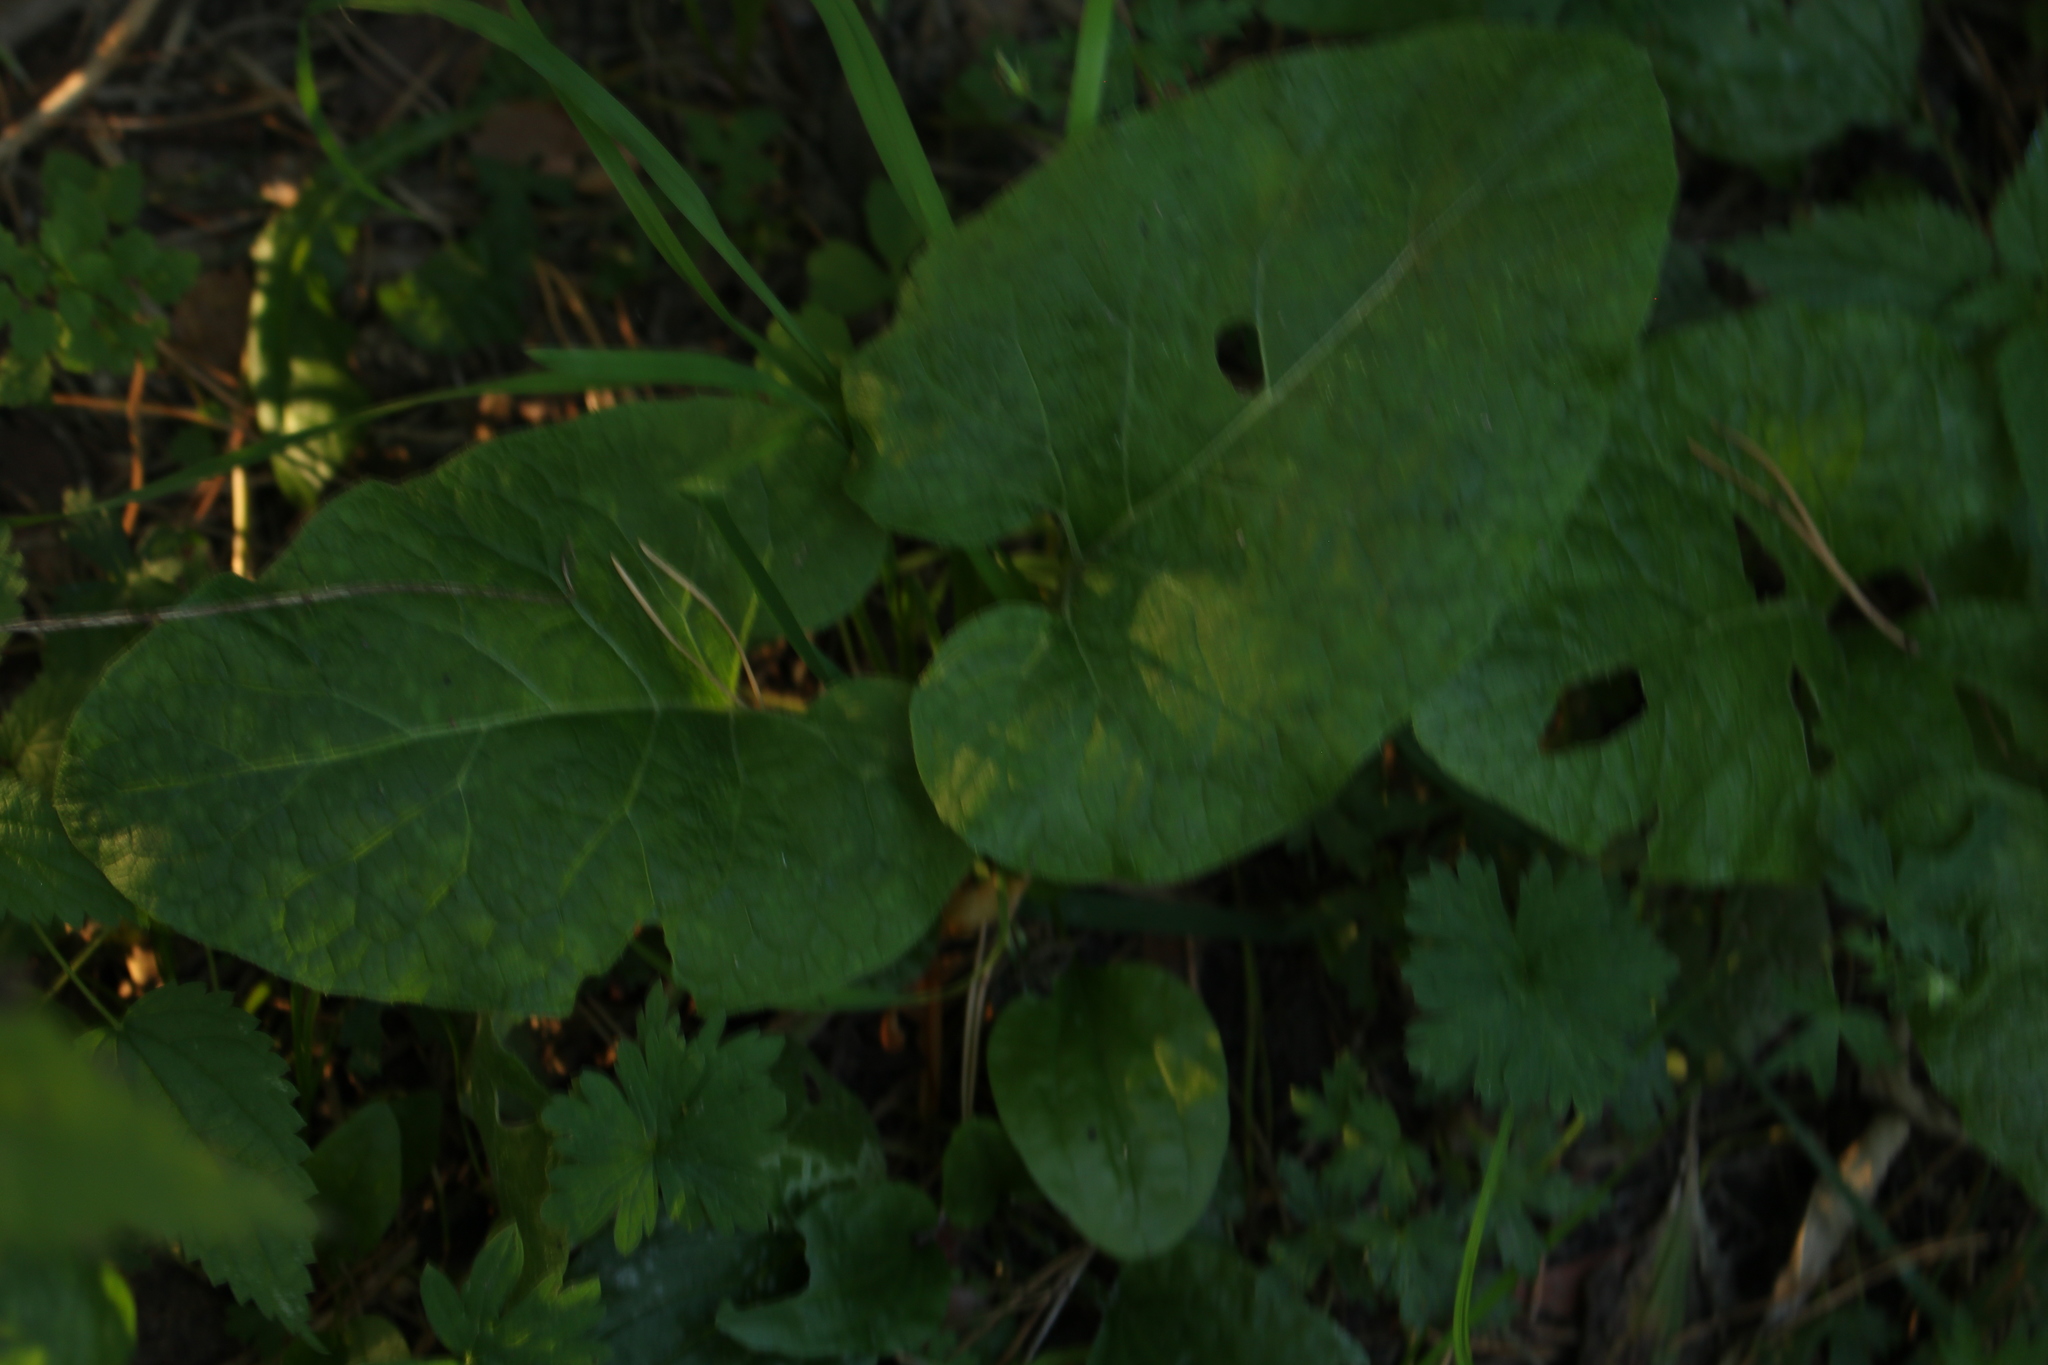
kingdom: Plantae
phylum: Tracheophyta
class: Magnoliopsida
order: Asterales
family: Asteraceae
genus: Arctium
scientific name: Arctium tomentosum
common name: Woolly burdock
